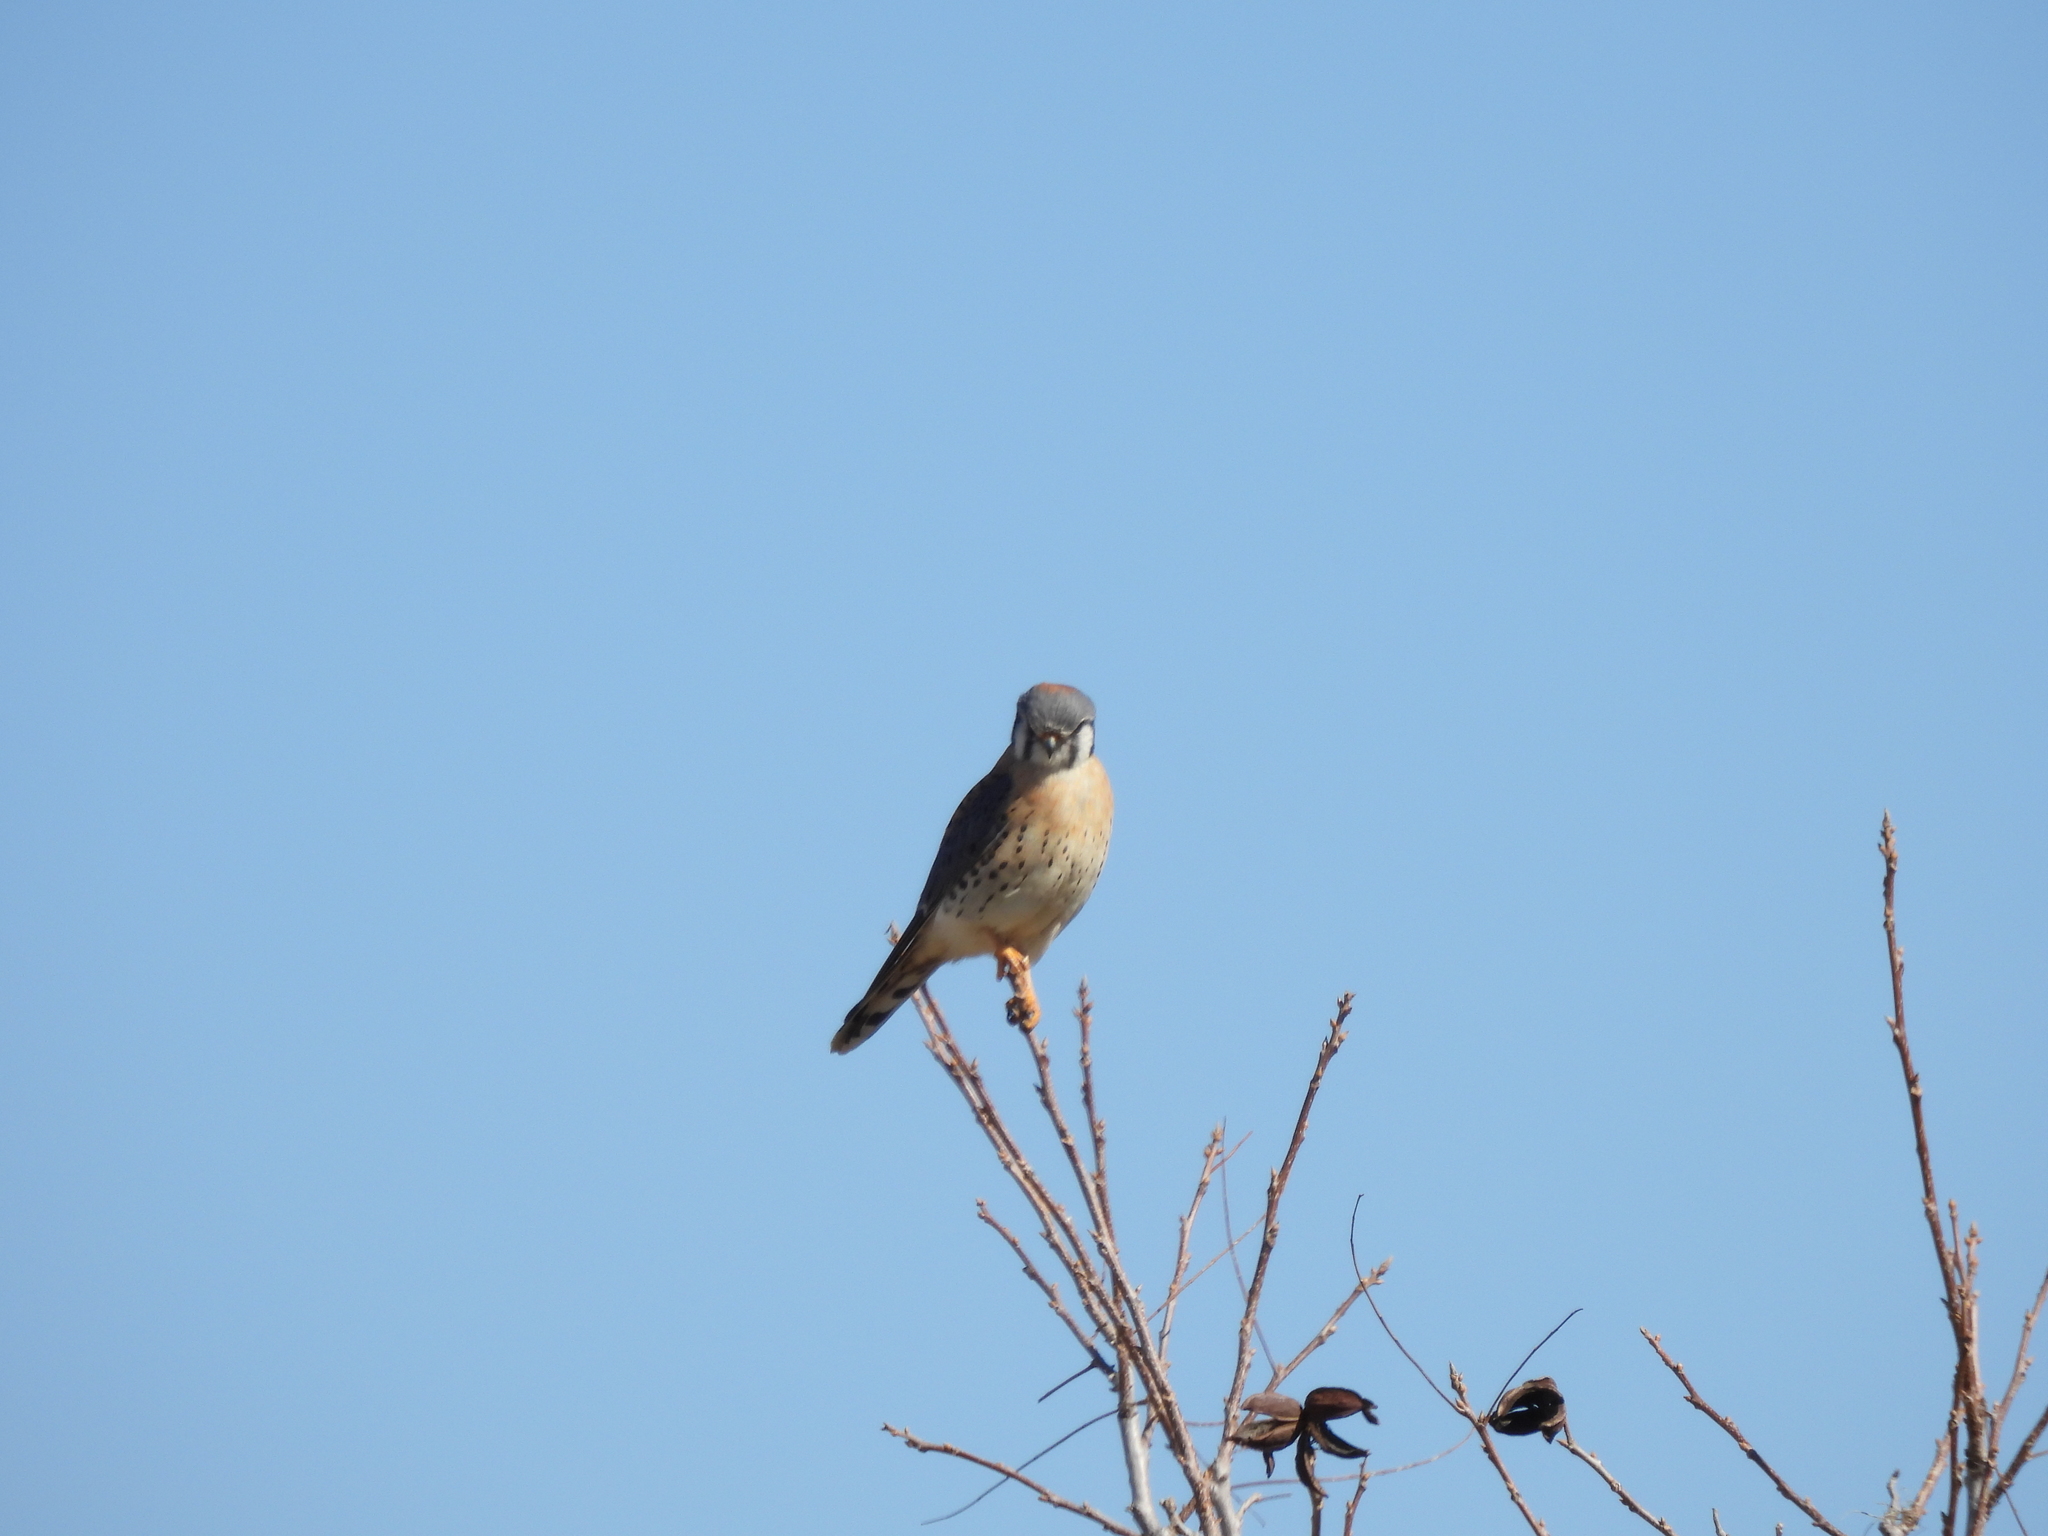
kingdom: Animalia
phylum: Chordata
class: Aves
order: Falconiformes
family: Falconidae
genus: Falco
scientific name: Falco sparverius
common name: American kestrel
